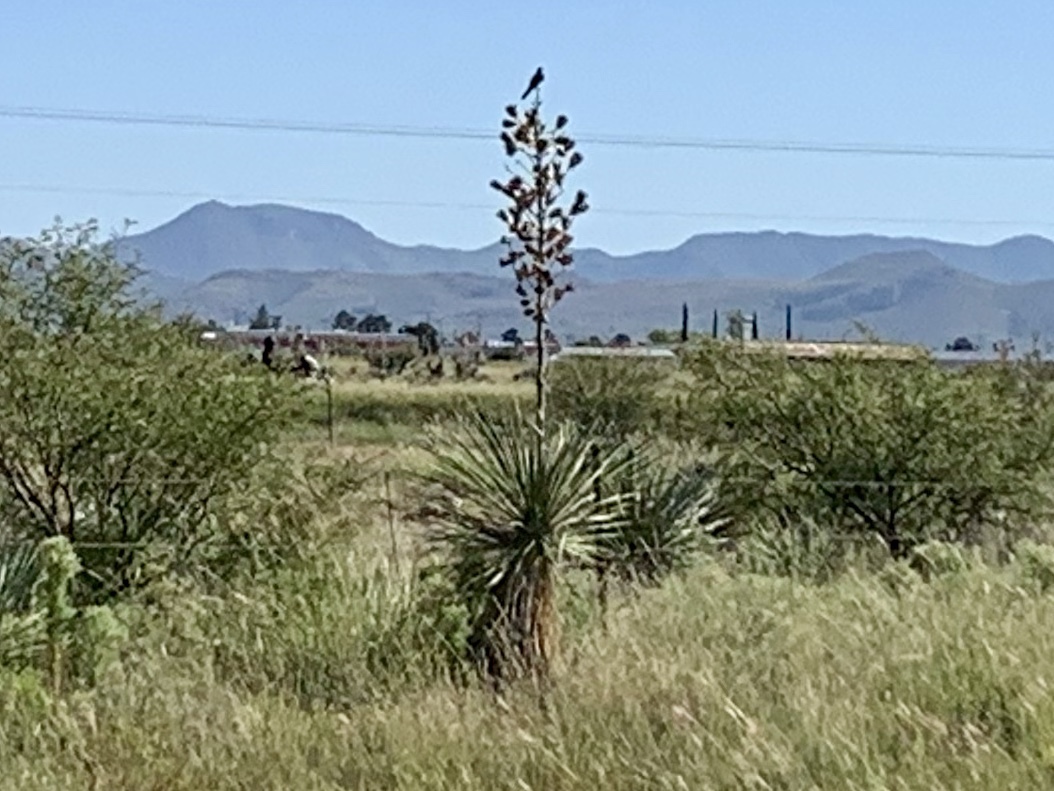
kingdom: Plantae
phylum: Tracheophyta
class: Liliopsida
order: Asparagales
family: Asparagaceae
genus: Yucca
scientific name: Yucca elata
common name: Palmella
